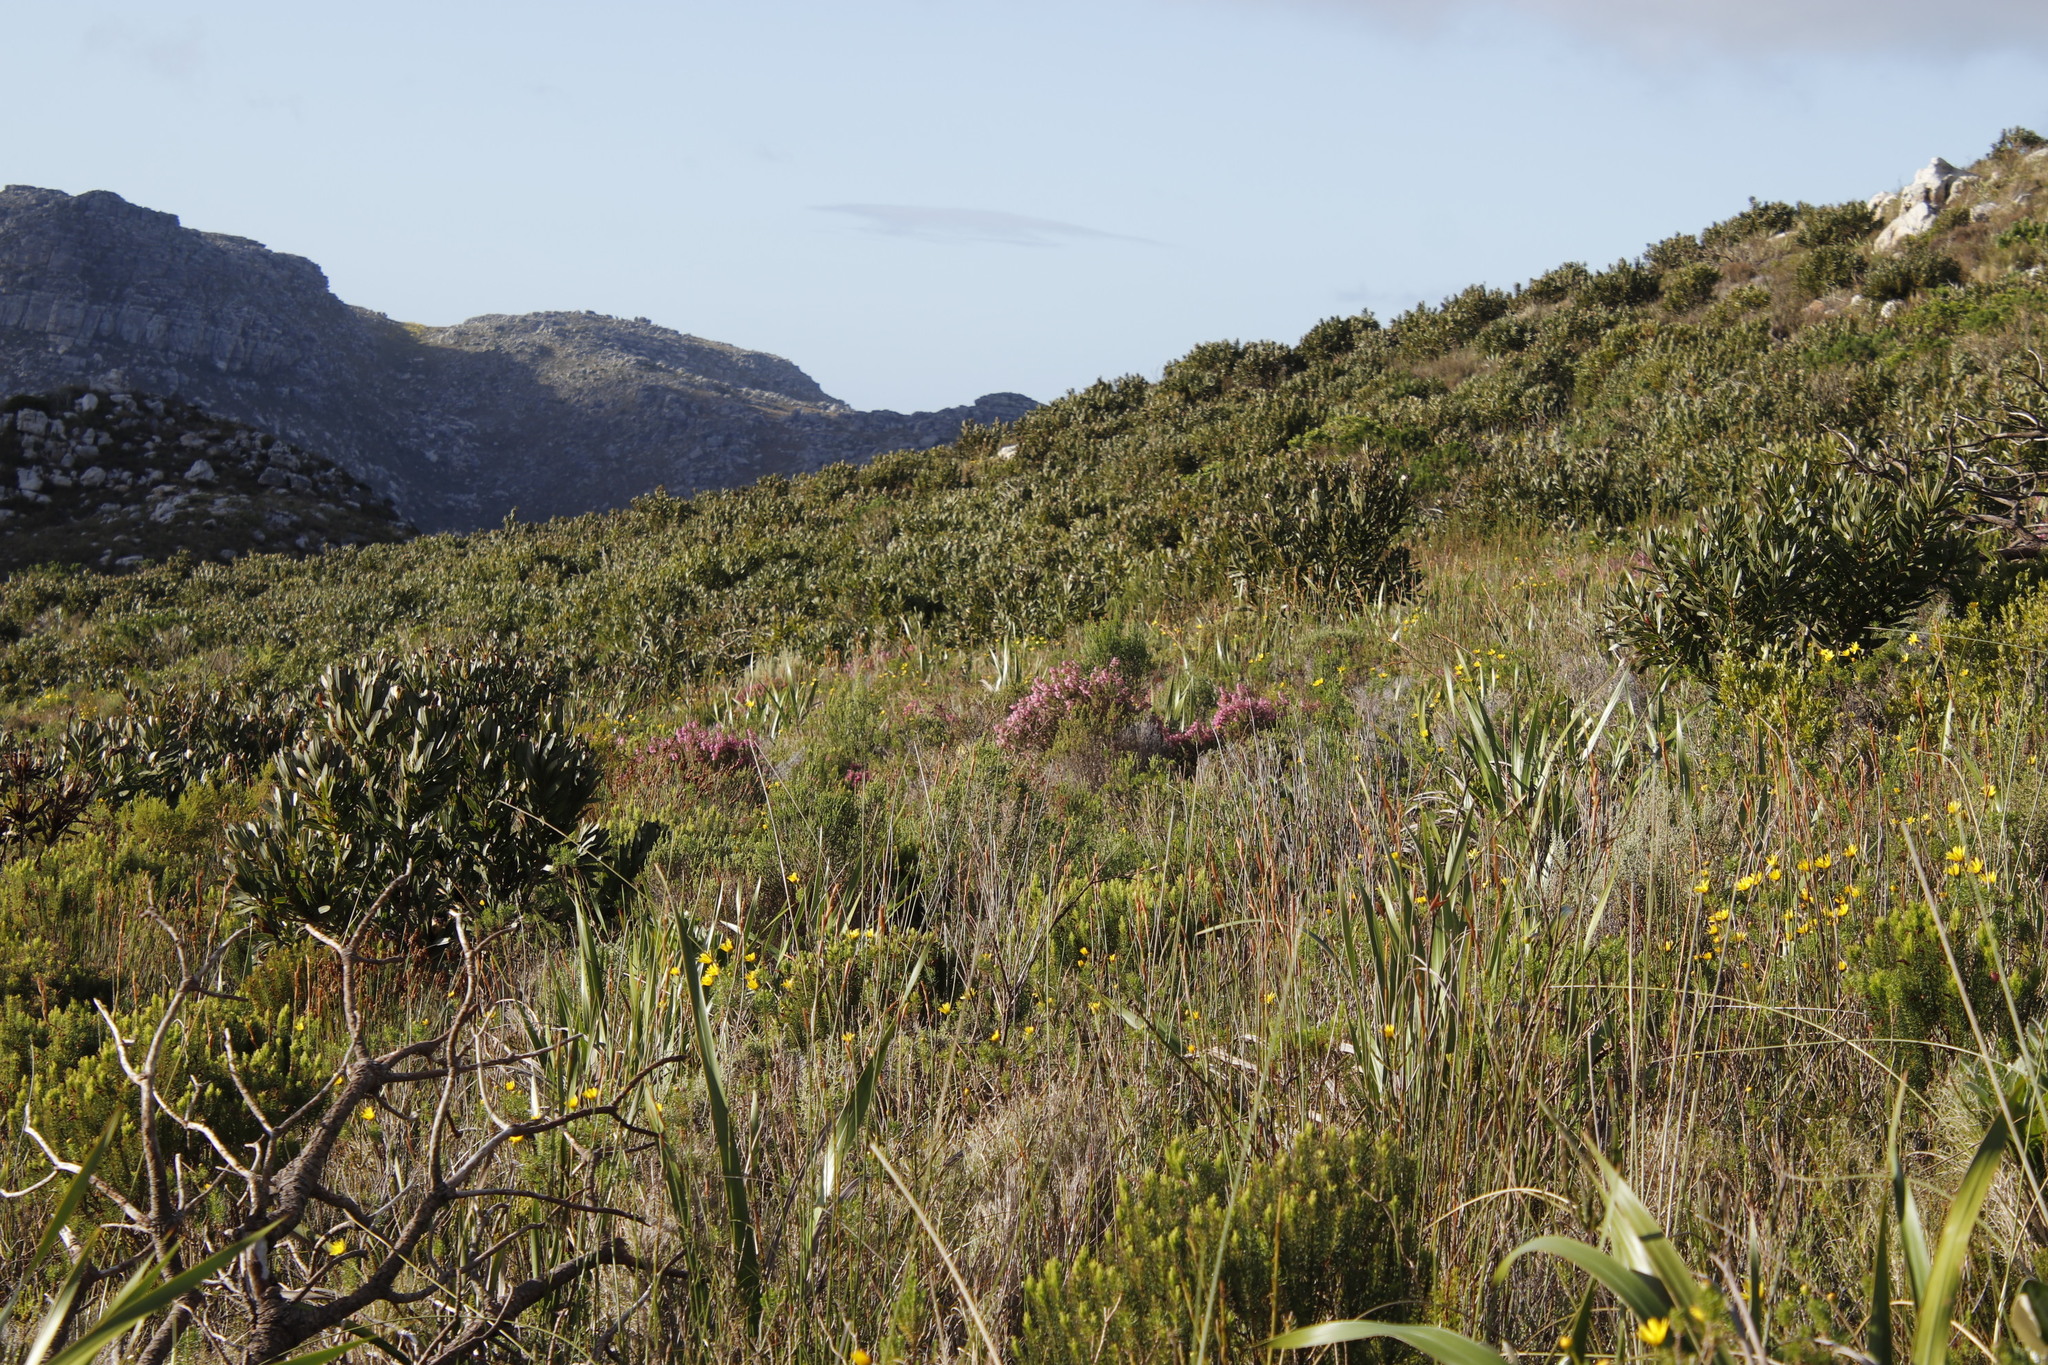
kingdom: Plantae
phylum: Tracheophyta
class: Magnoliopsida
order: Ericales
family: Ericaceae
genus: Erica
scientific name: Erica viscaria
